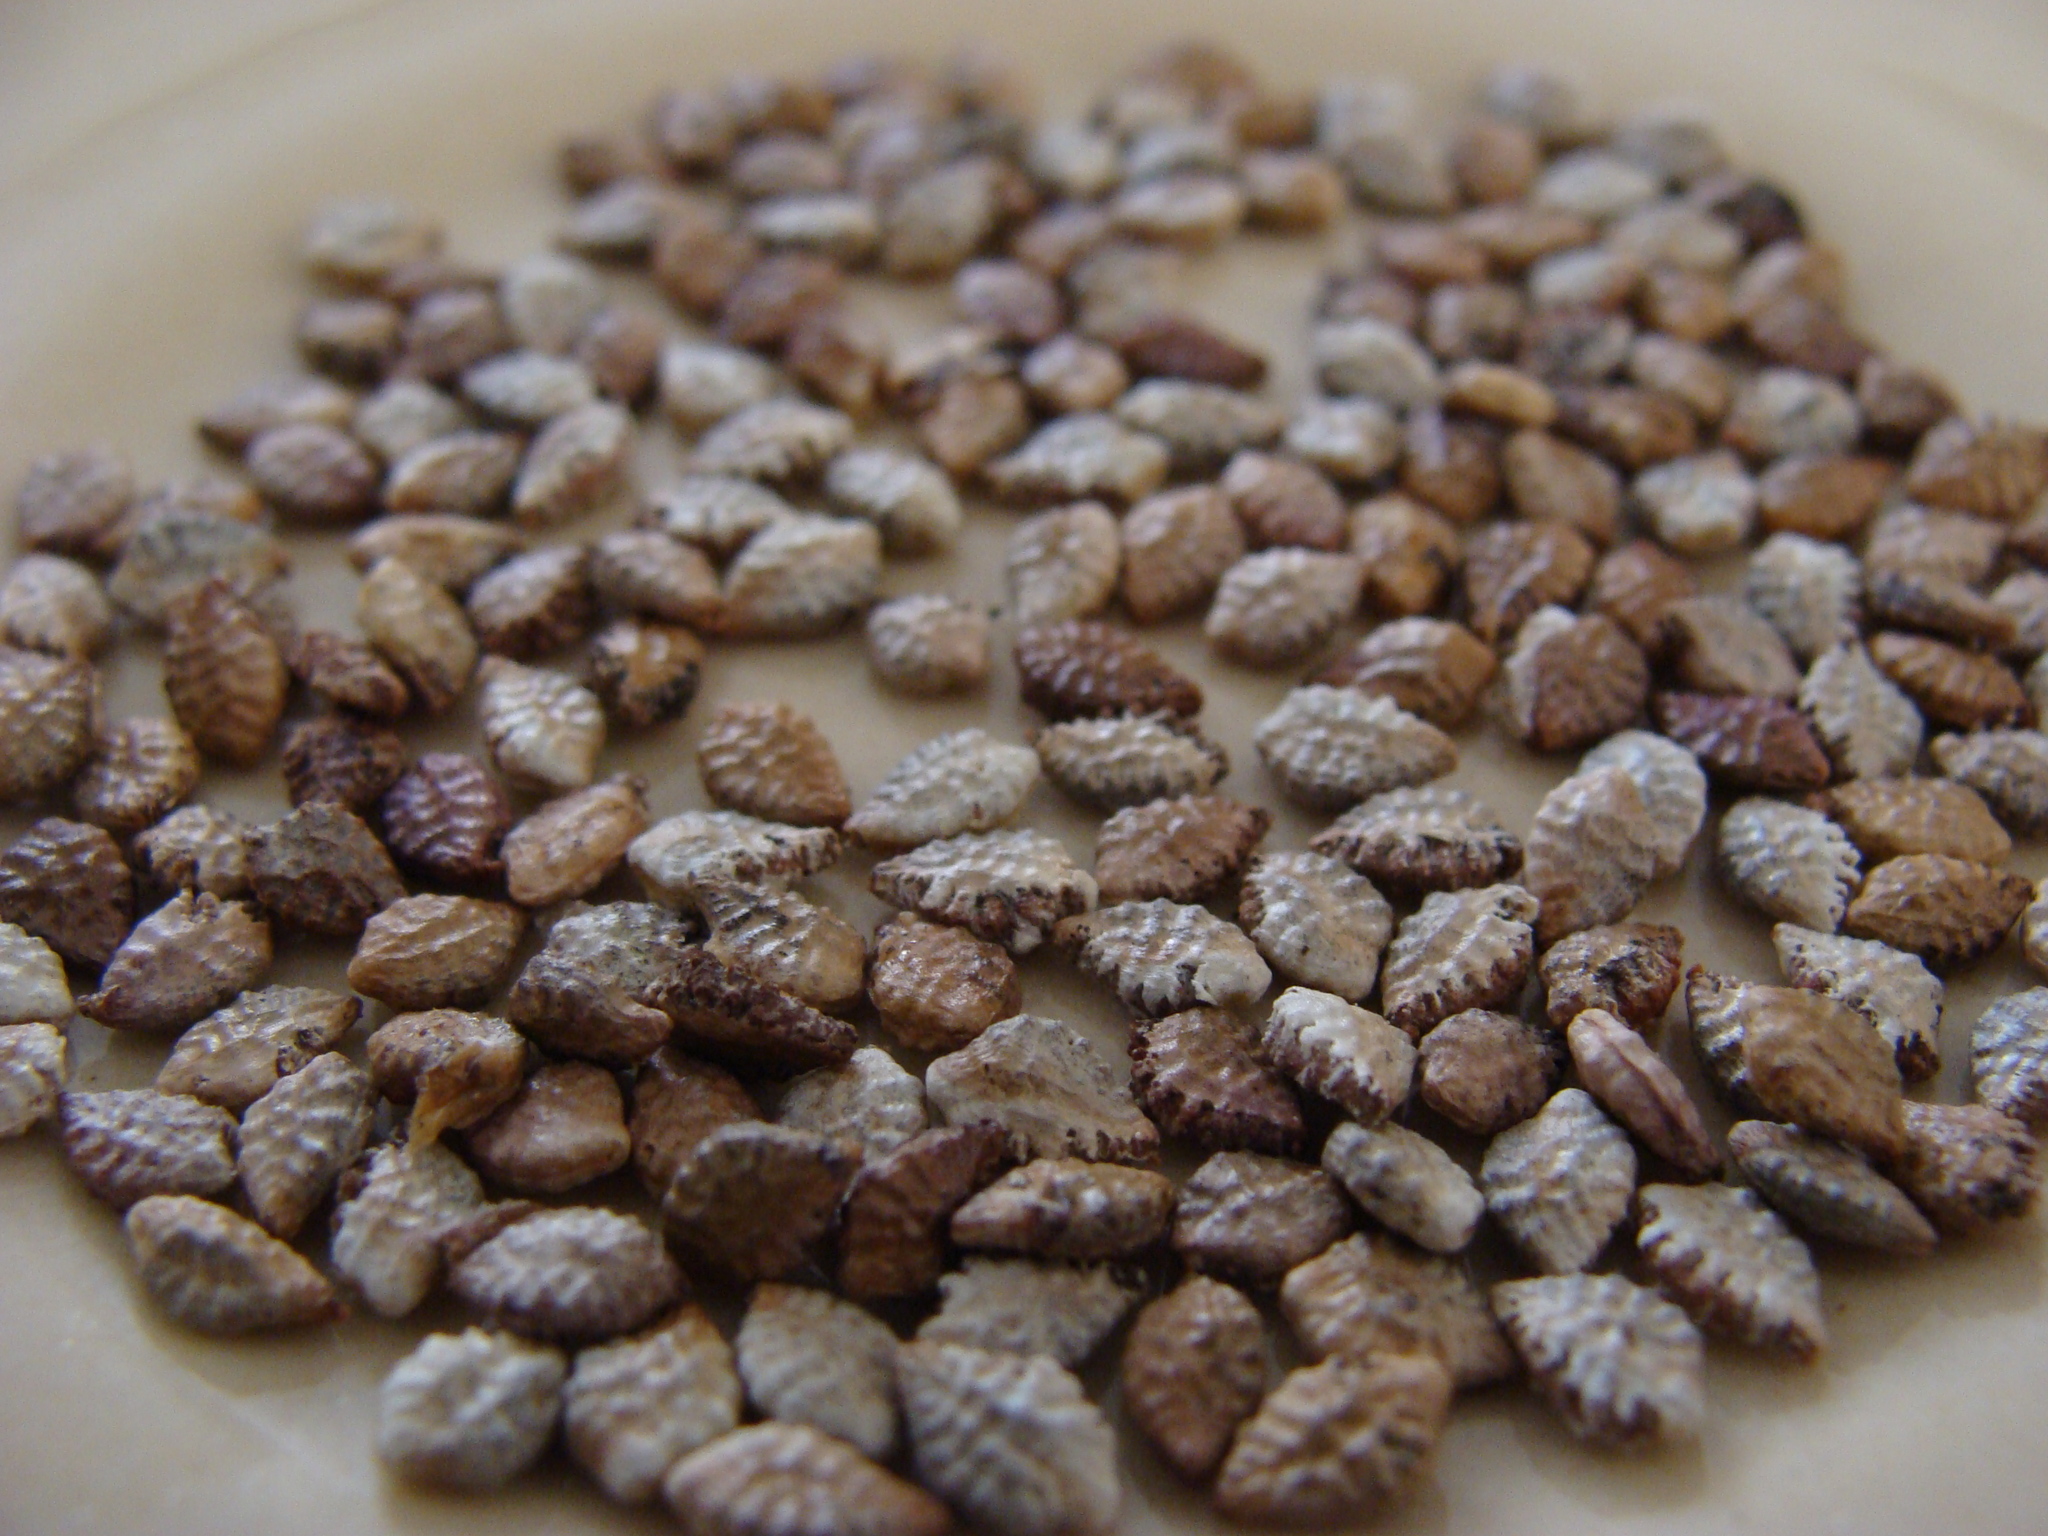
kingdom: Plantae
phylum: Tracheophyta
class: Magnoliopsida
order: Malpighiales
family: Passifloraceae
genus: Passiflora
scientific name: Passiflora viridiflora
